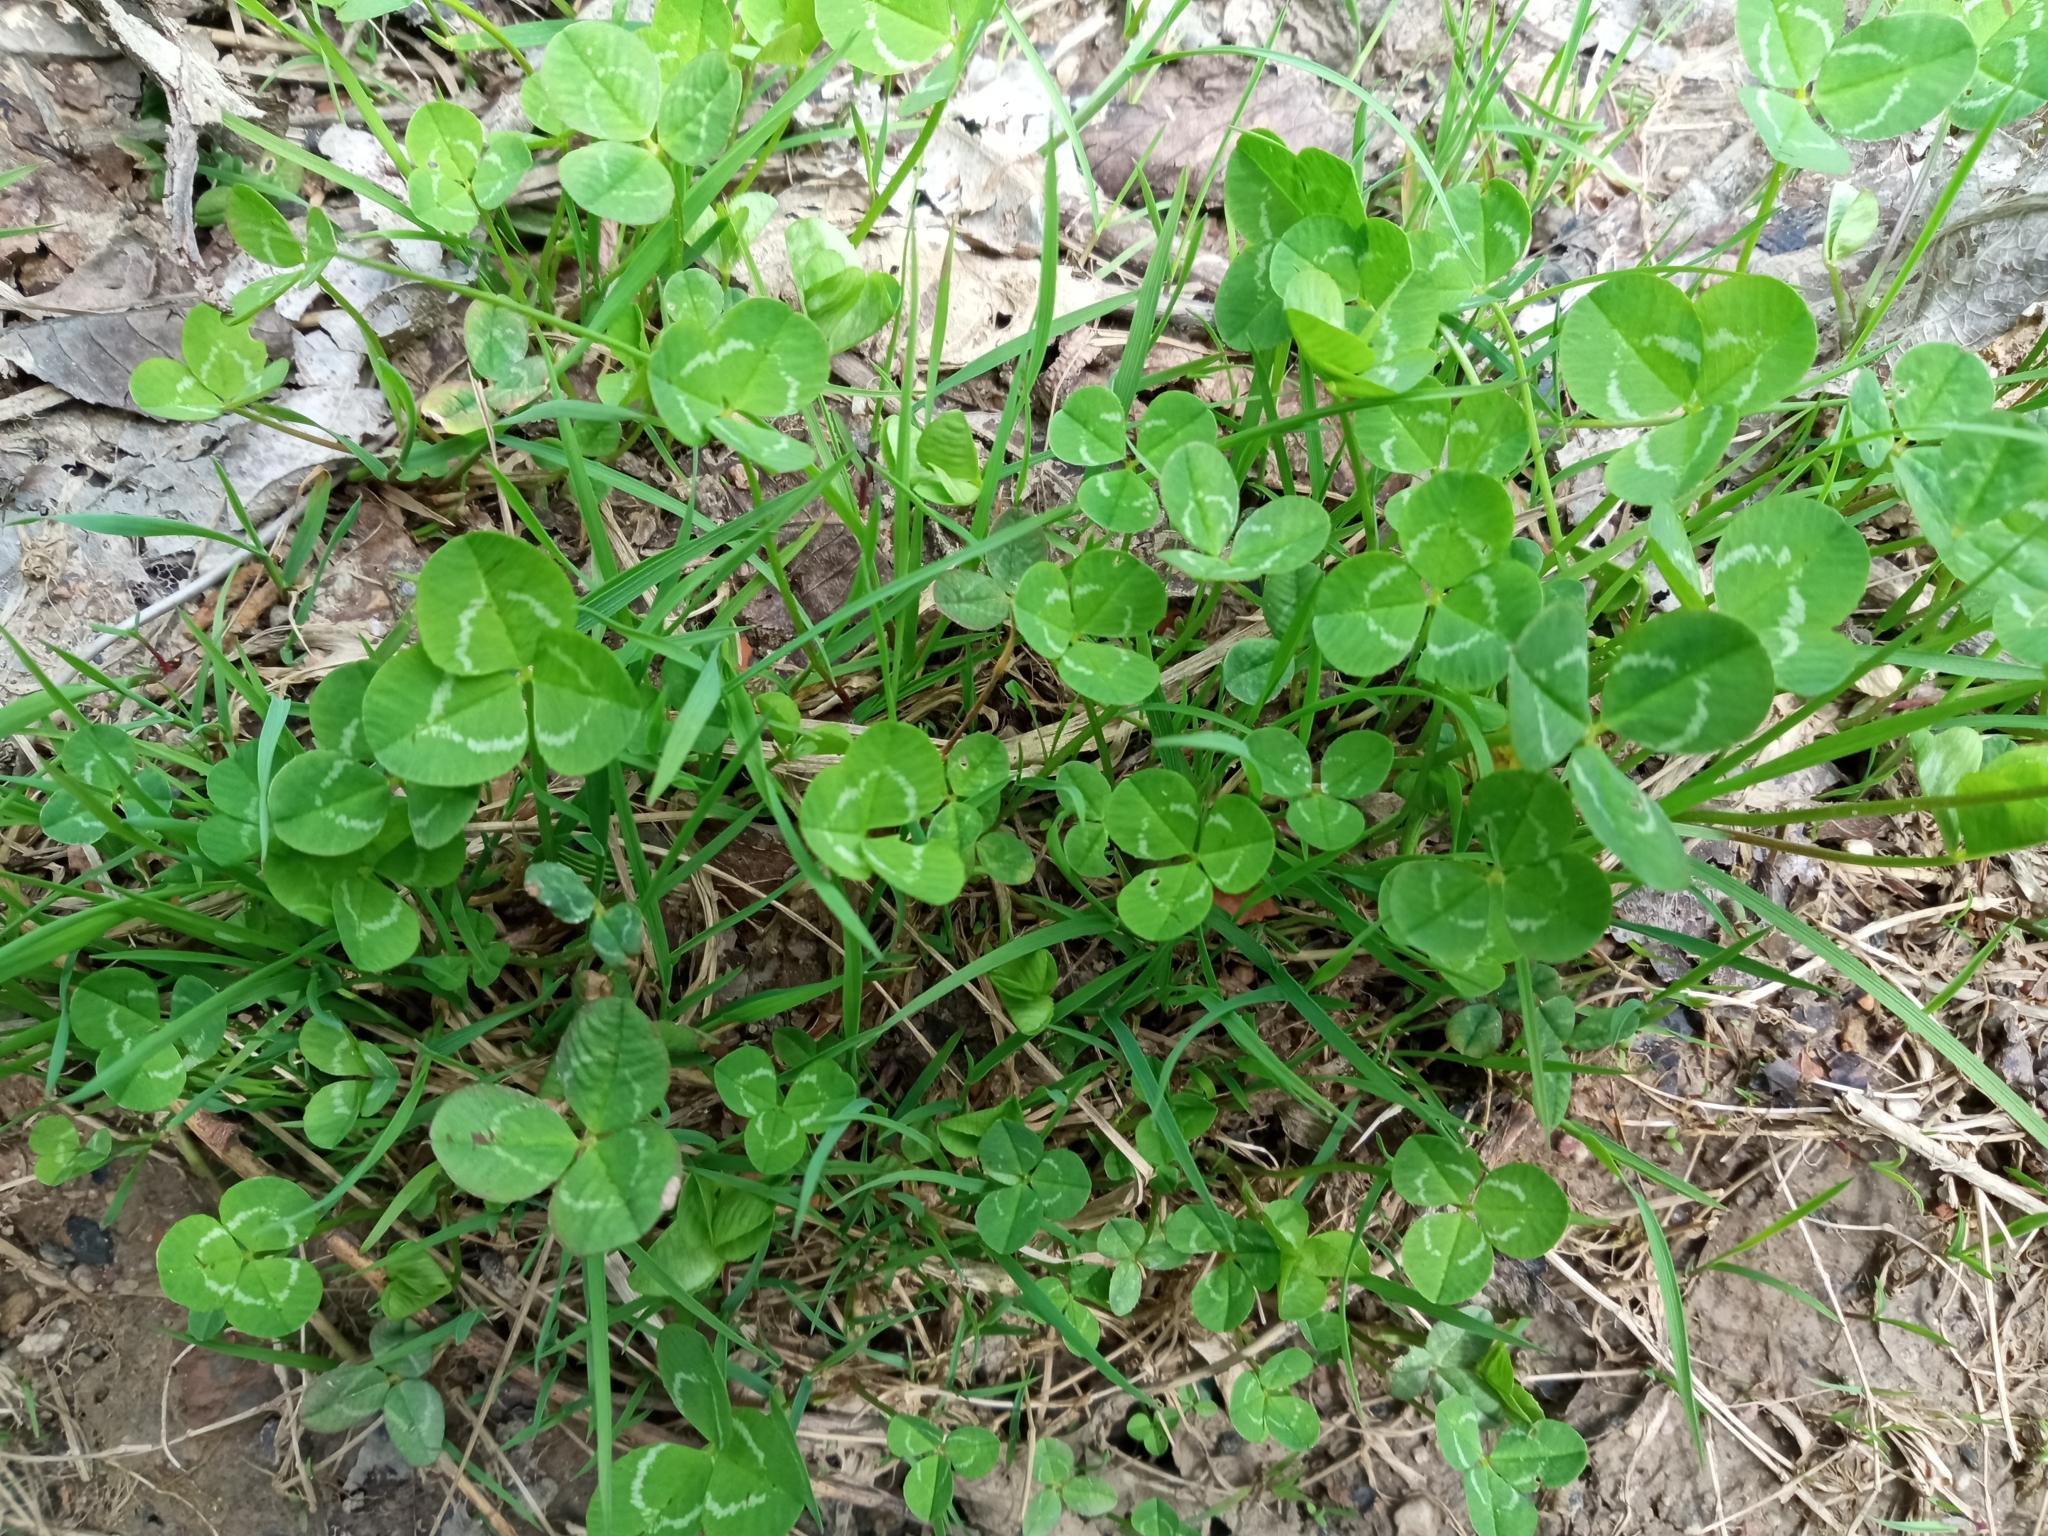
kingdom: Plantae
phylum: Tracheophyta
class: Magnoliopsida
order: Fabales
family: Fabaceae
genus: Trifolium
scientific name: Trifolium repens
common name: White clover
